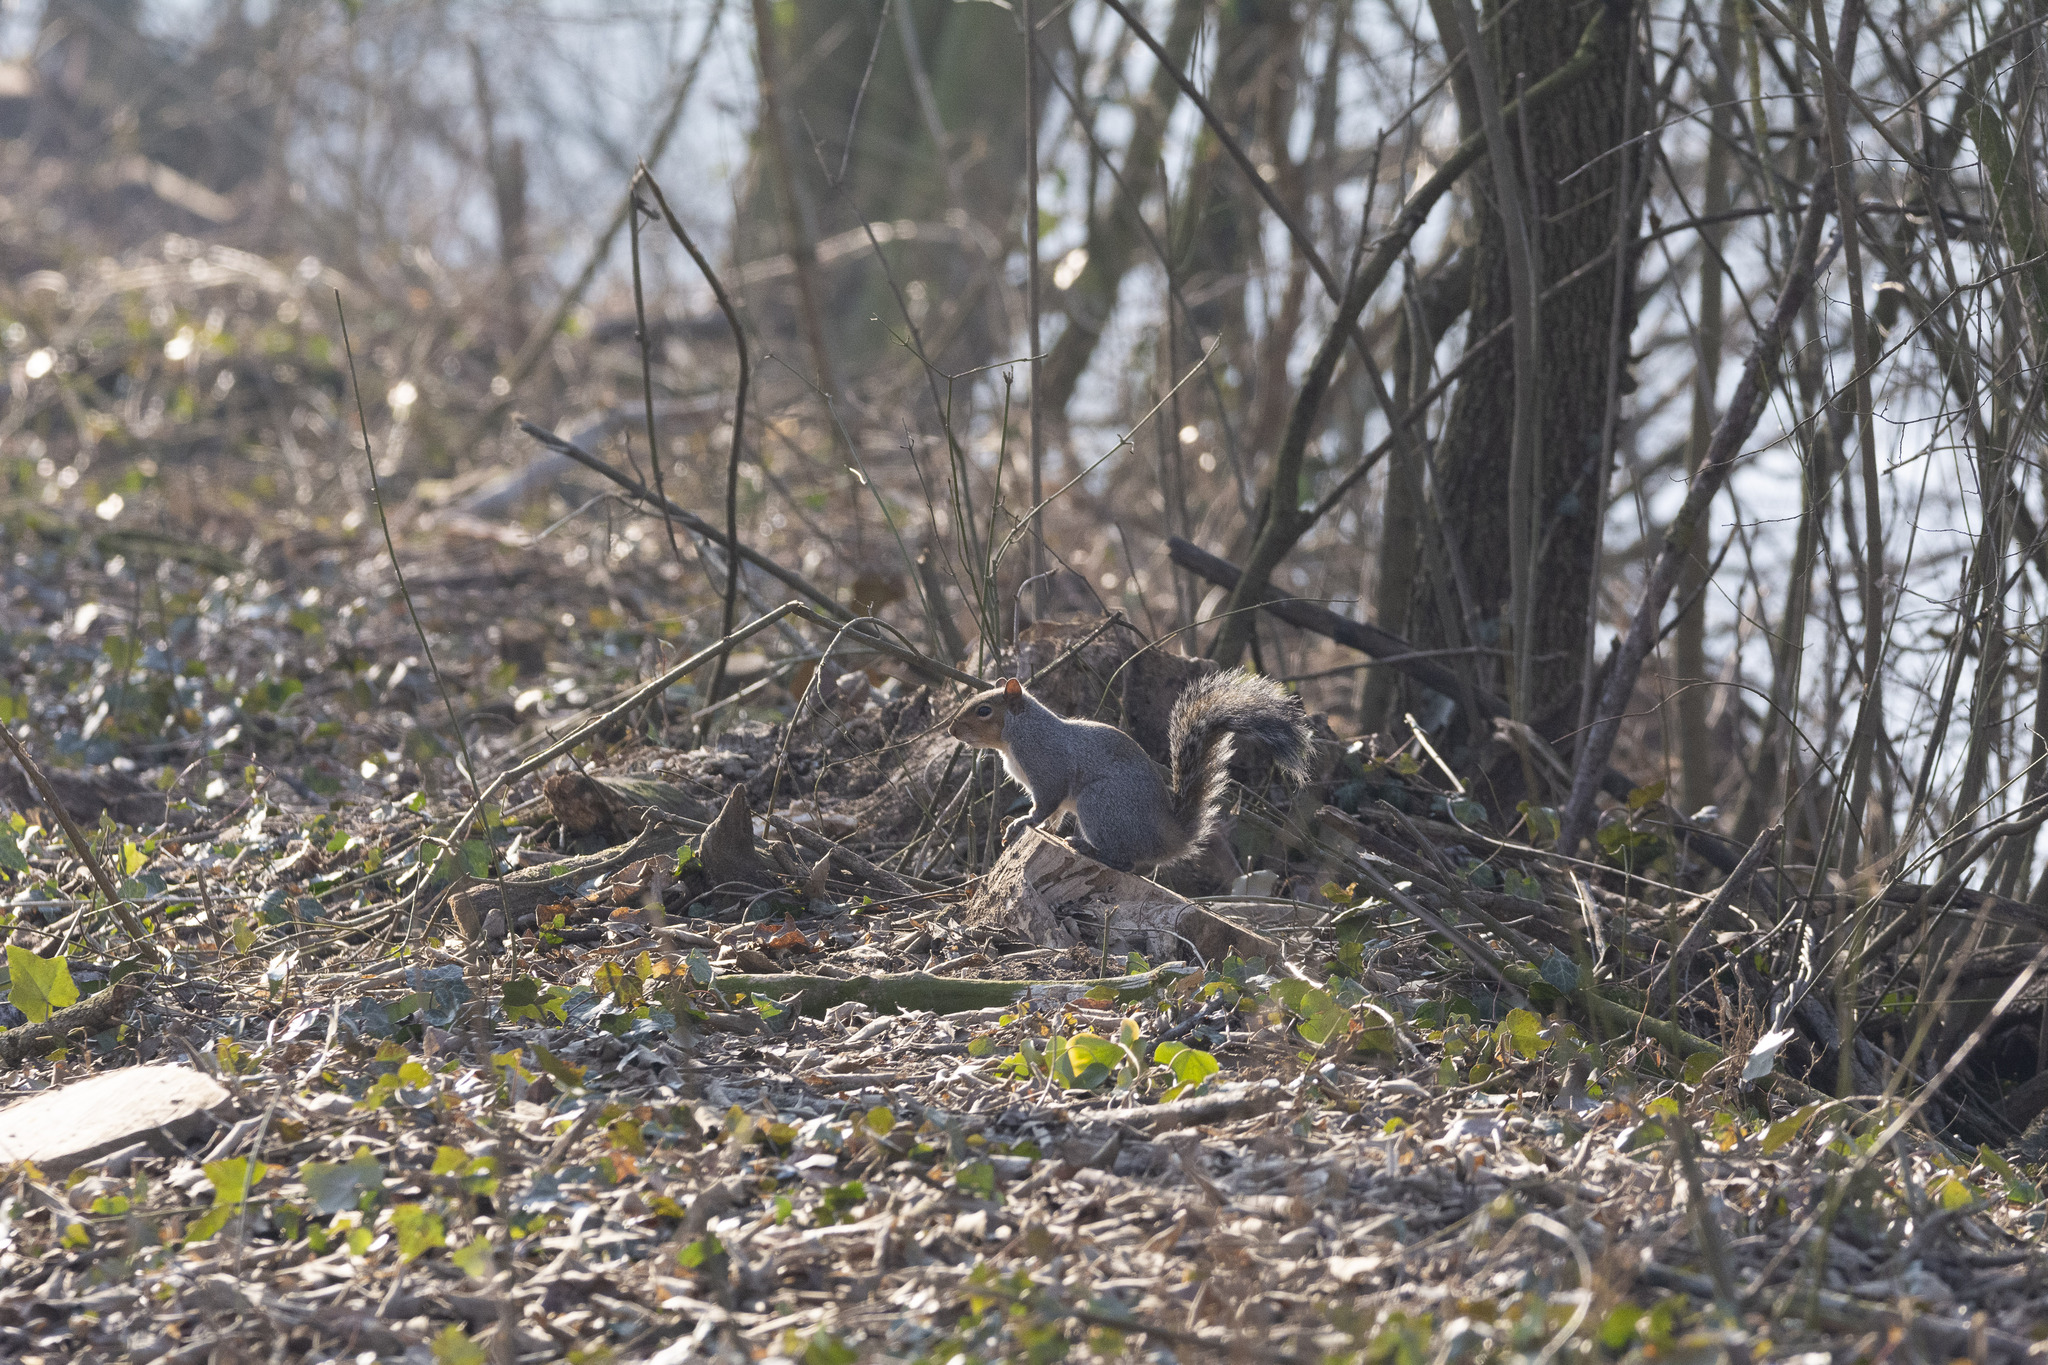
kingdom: Animalia
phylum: Chordata
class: Mammalia
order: Rodentia
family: Sciuridae
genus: Sciurus
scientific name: Sciurus carolinensis
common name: Eastern gray squirrel
